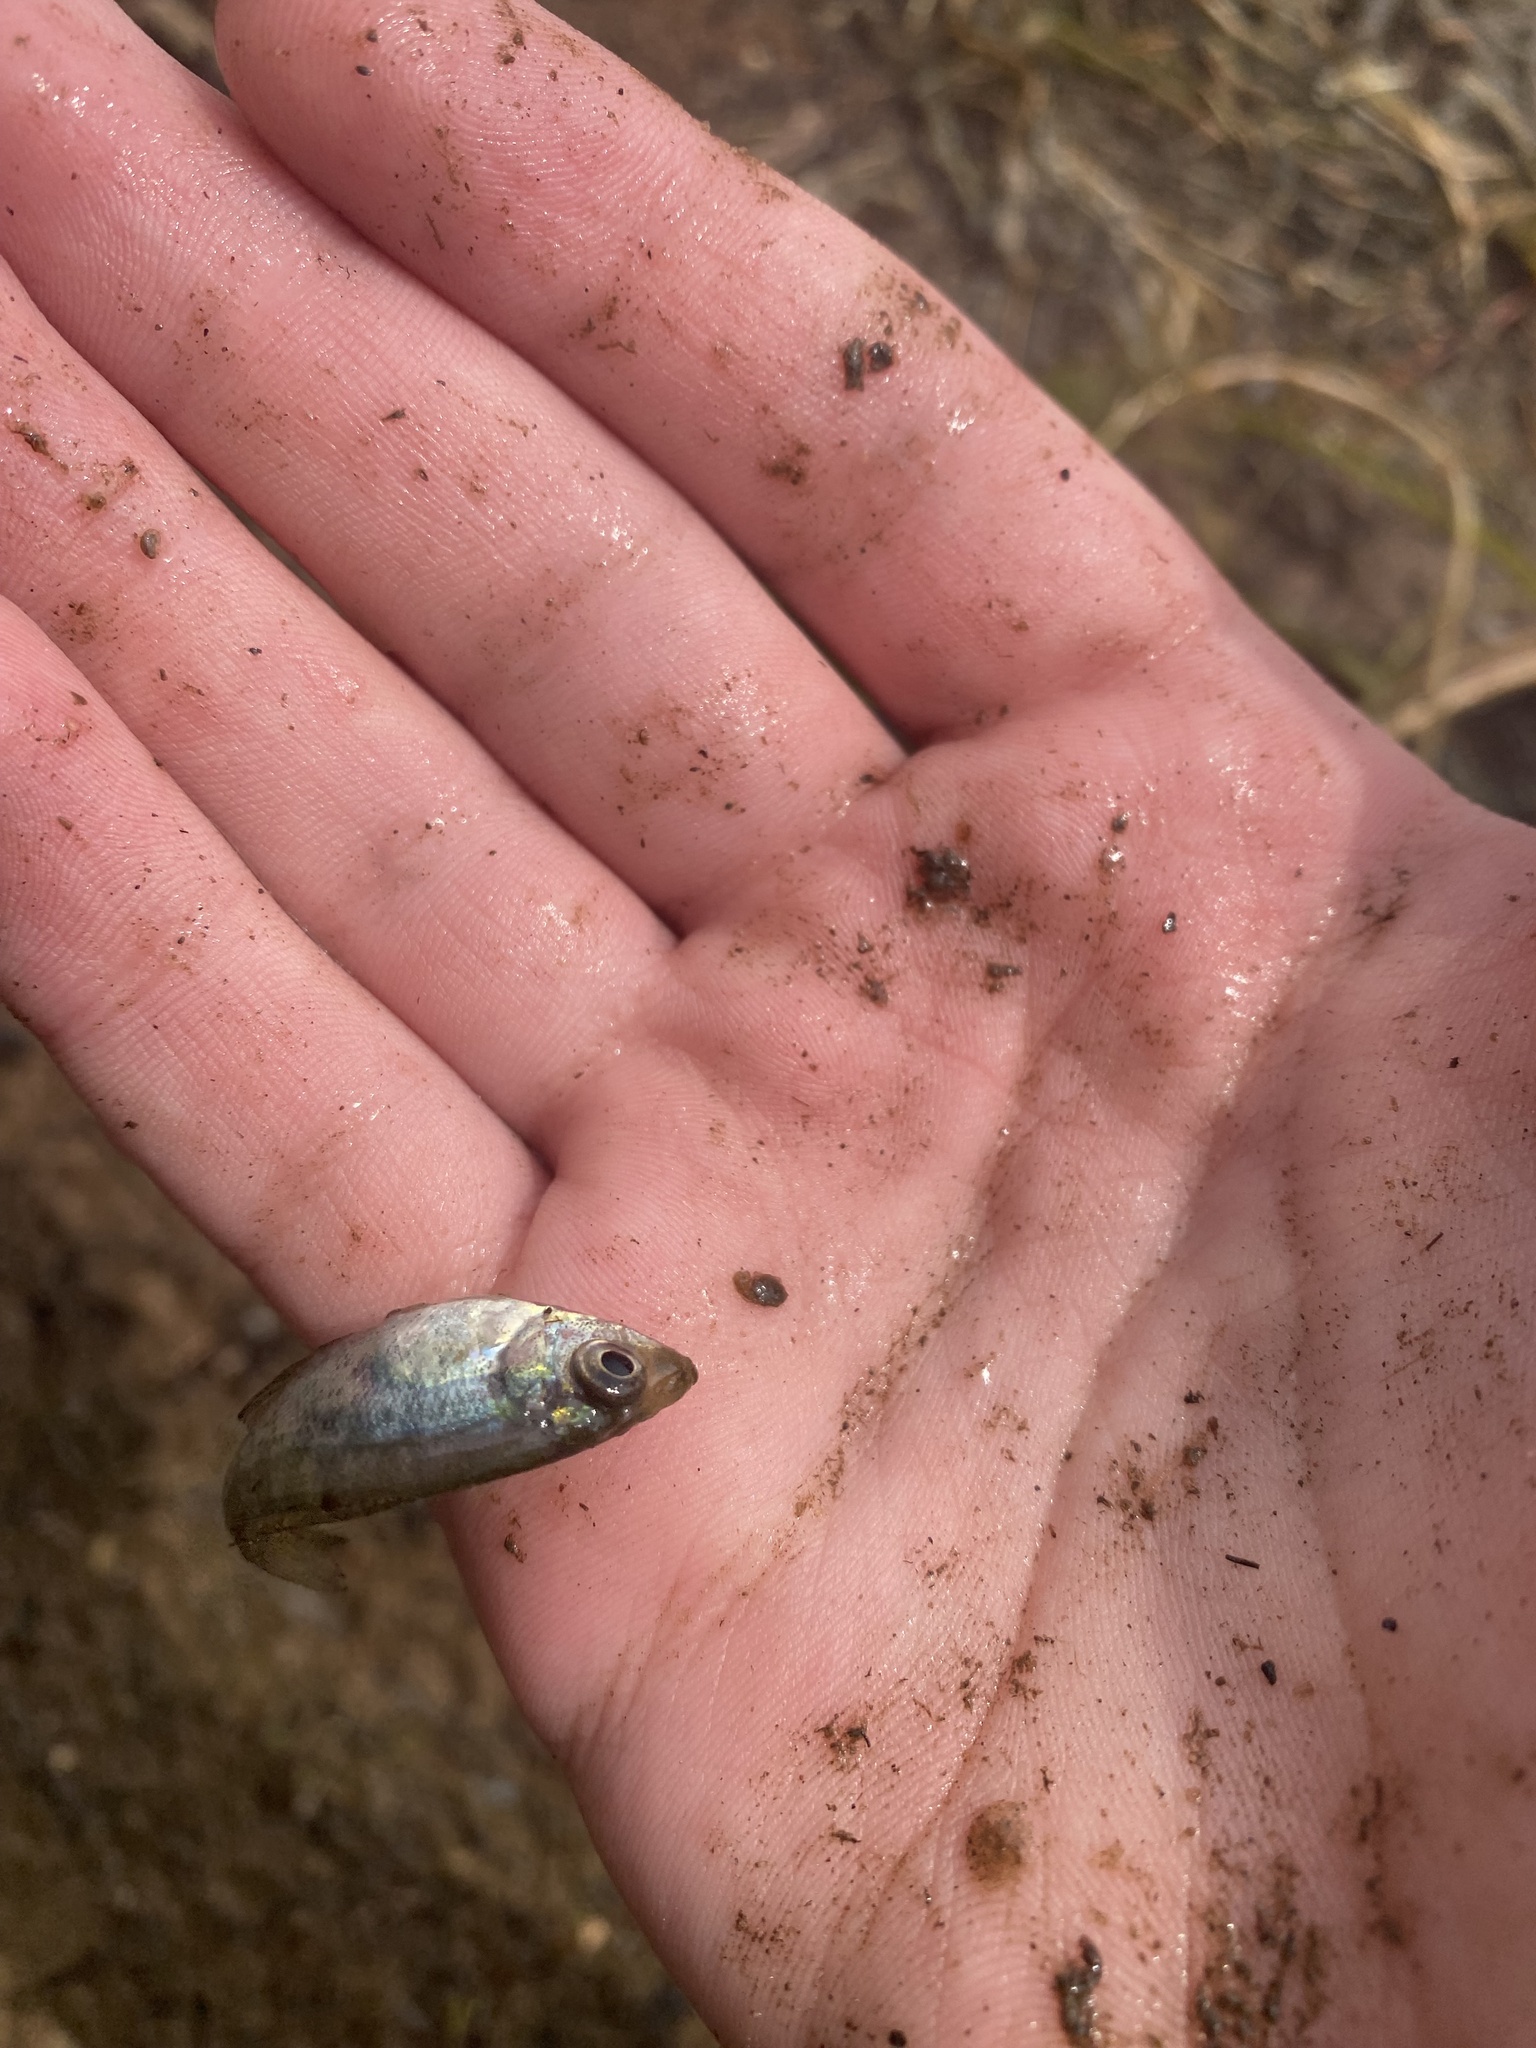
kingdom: Animalia
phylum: Chordata
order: Perciformes
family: Centrarchidae
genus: Pomoxis
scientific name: Pomoxis nigromaculatus
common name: Black crappie
